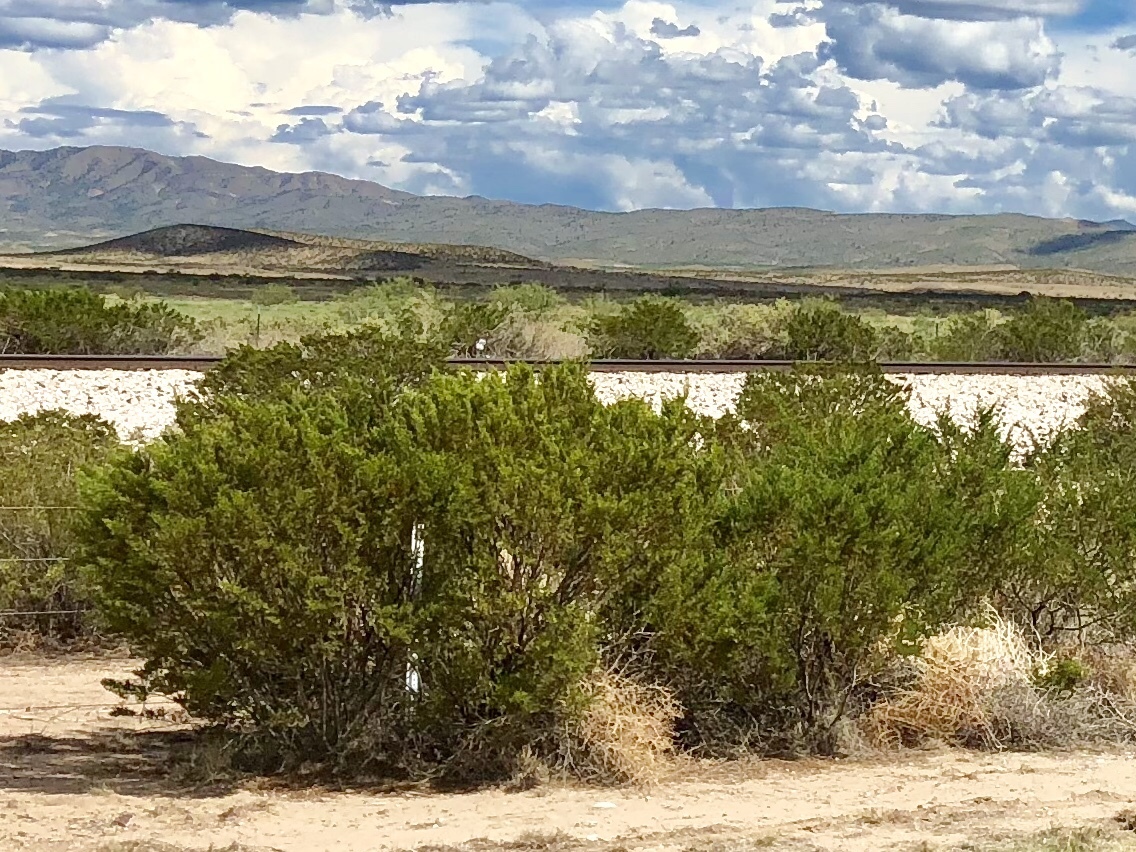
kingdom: Plantae
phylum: Tracheophyta
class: Magnoliopsida
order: Zygophyllales
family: Zygophyllaceae
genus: Larrea
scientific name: Larrea tridentata
